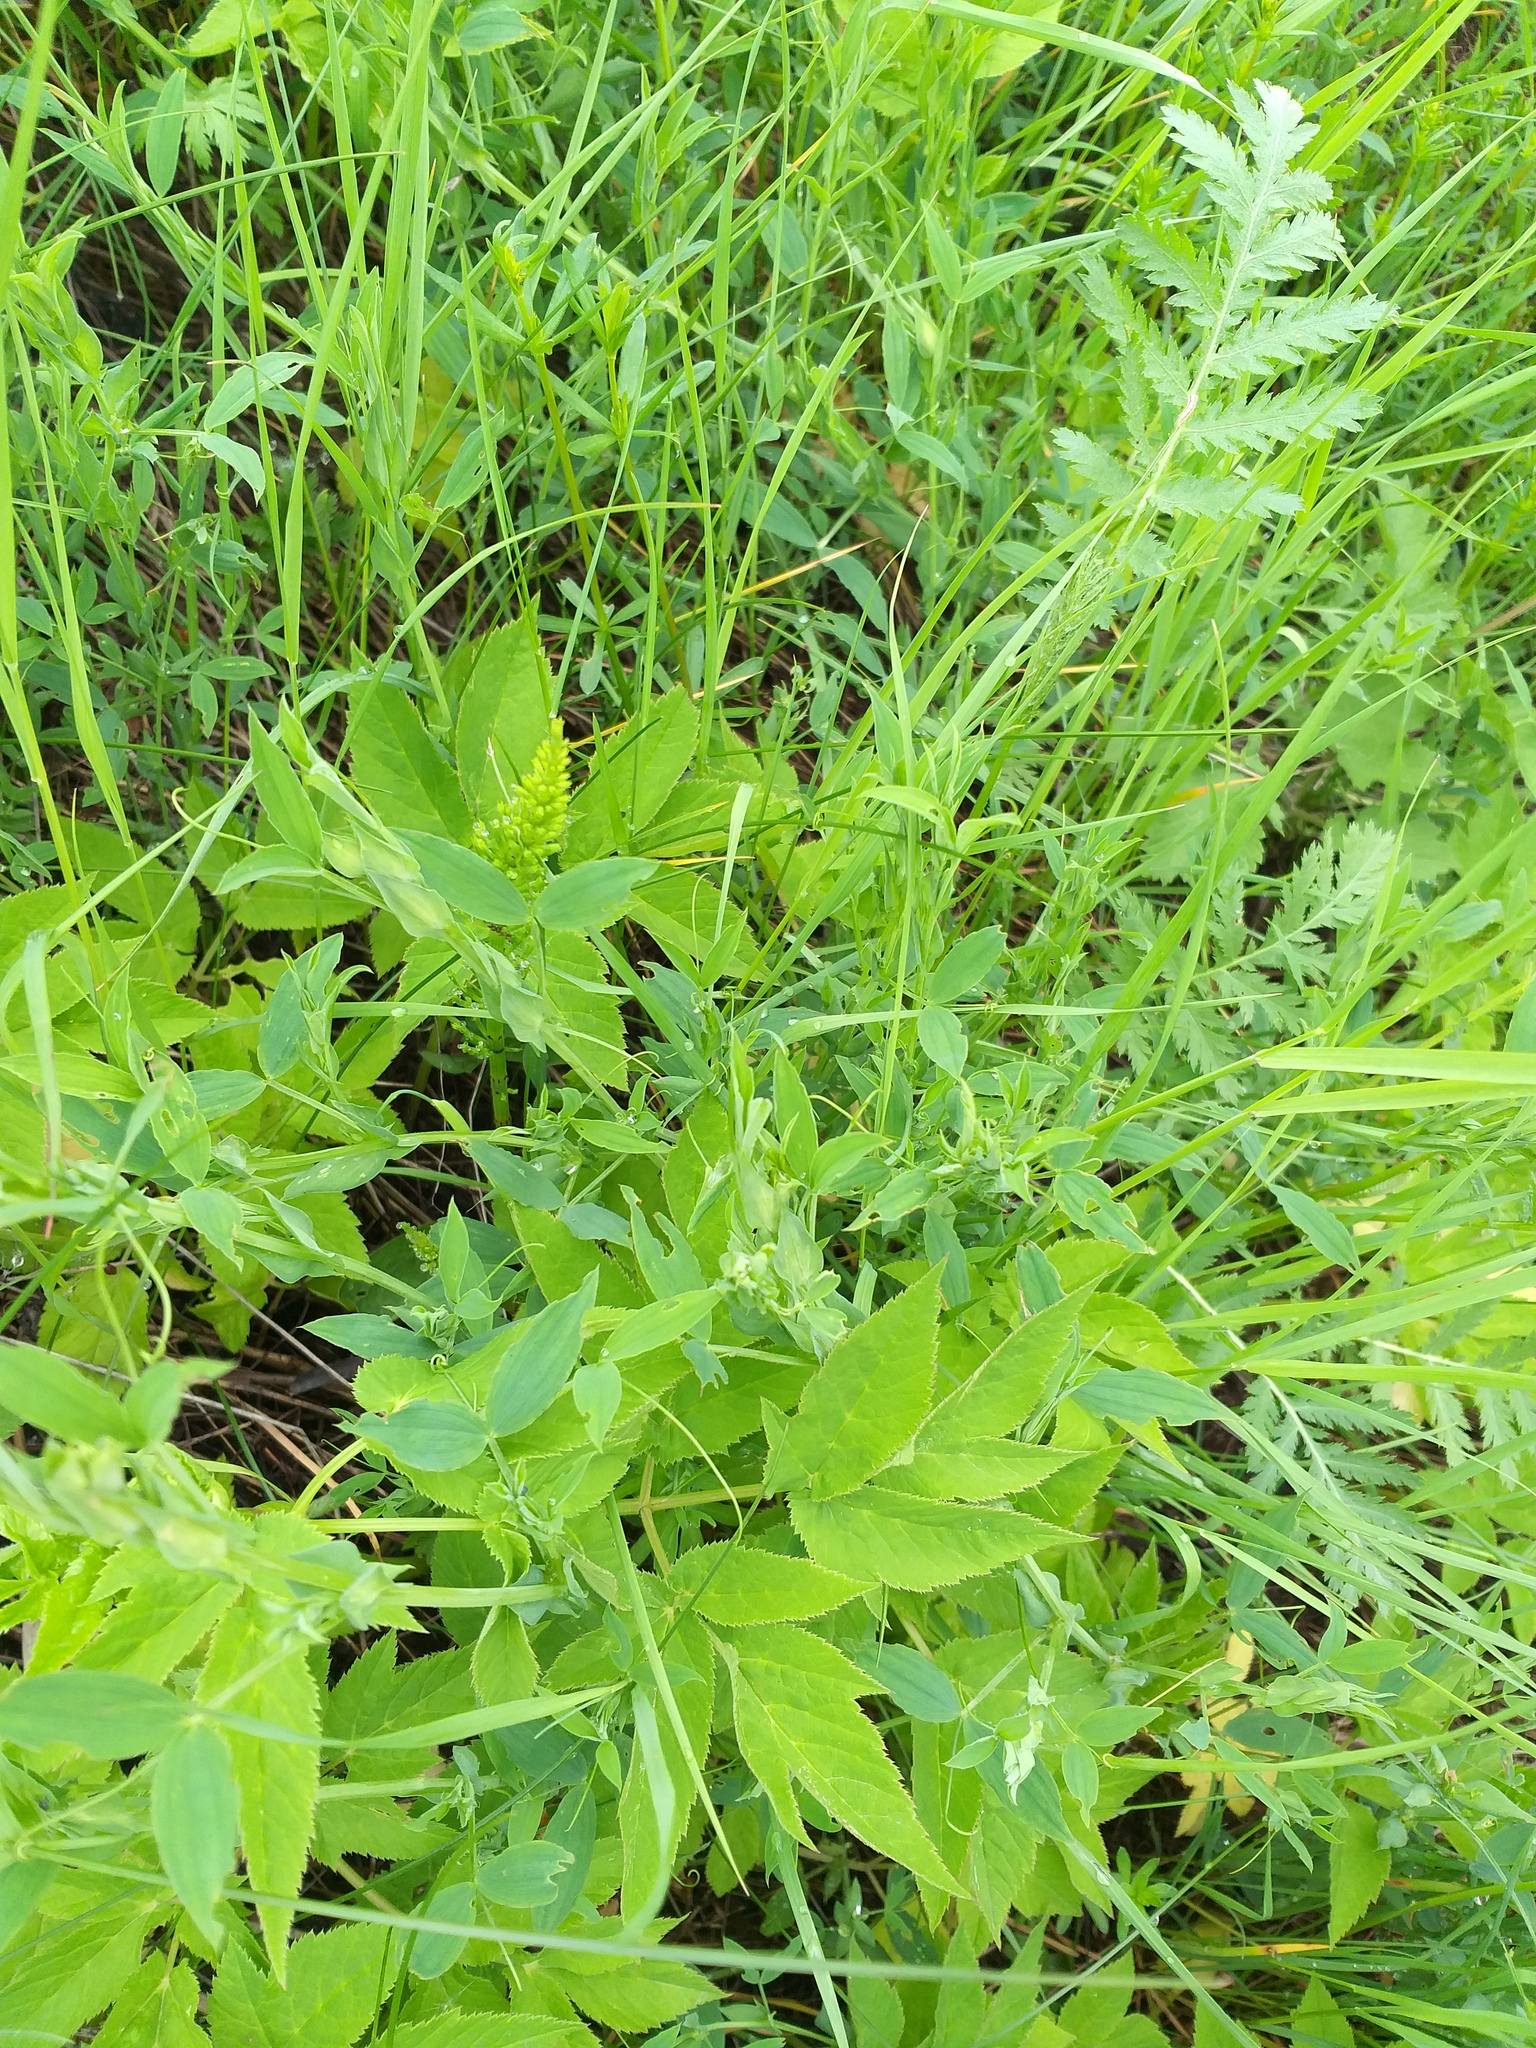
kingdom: Plantae
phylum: Tracheophyta
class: Magnoliopsida
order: Fabales
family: Fabaceae
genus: Lathyrus
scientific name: Lathyrus pratensis
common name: Meadow vetchling
